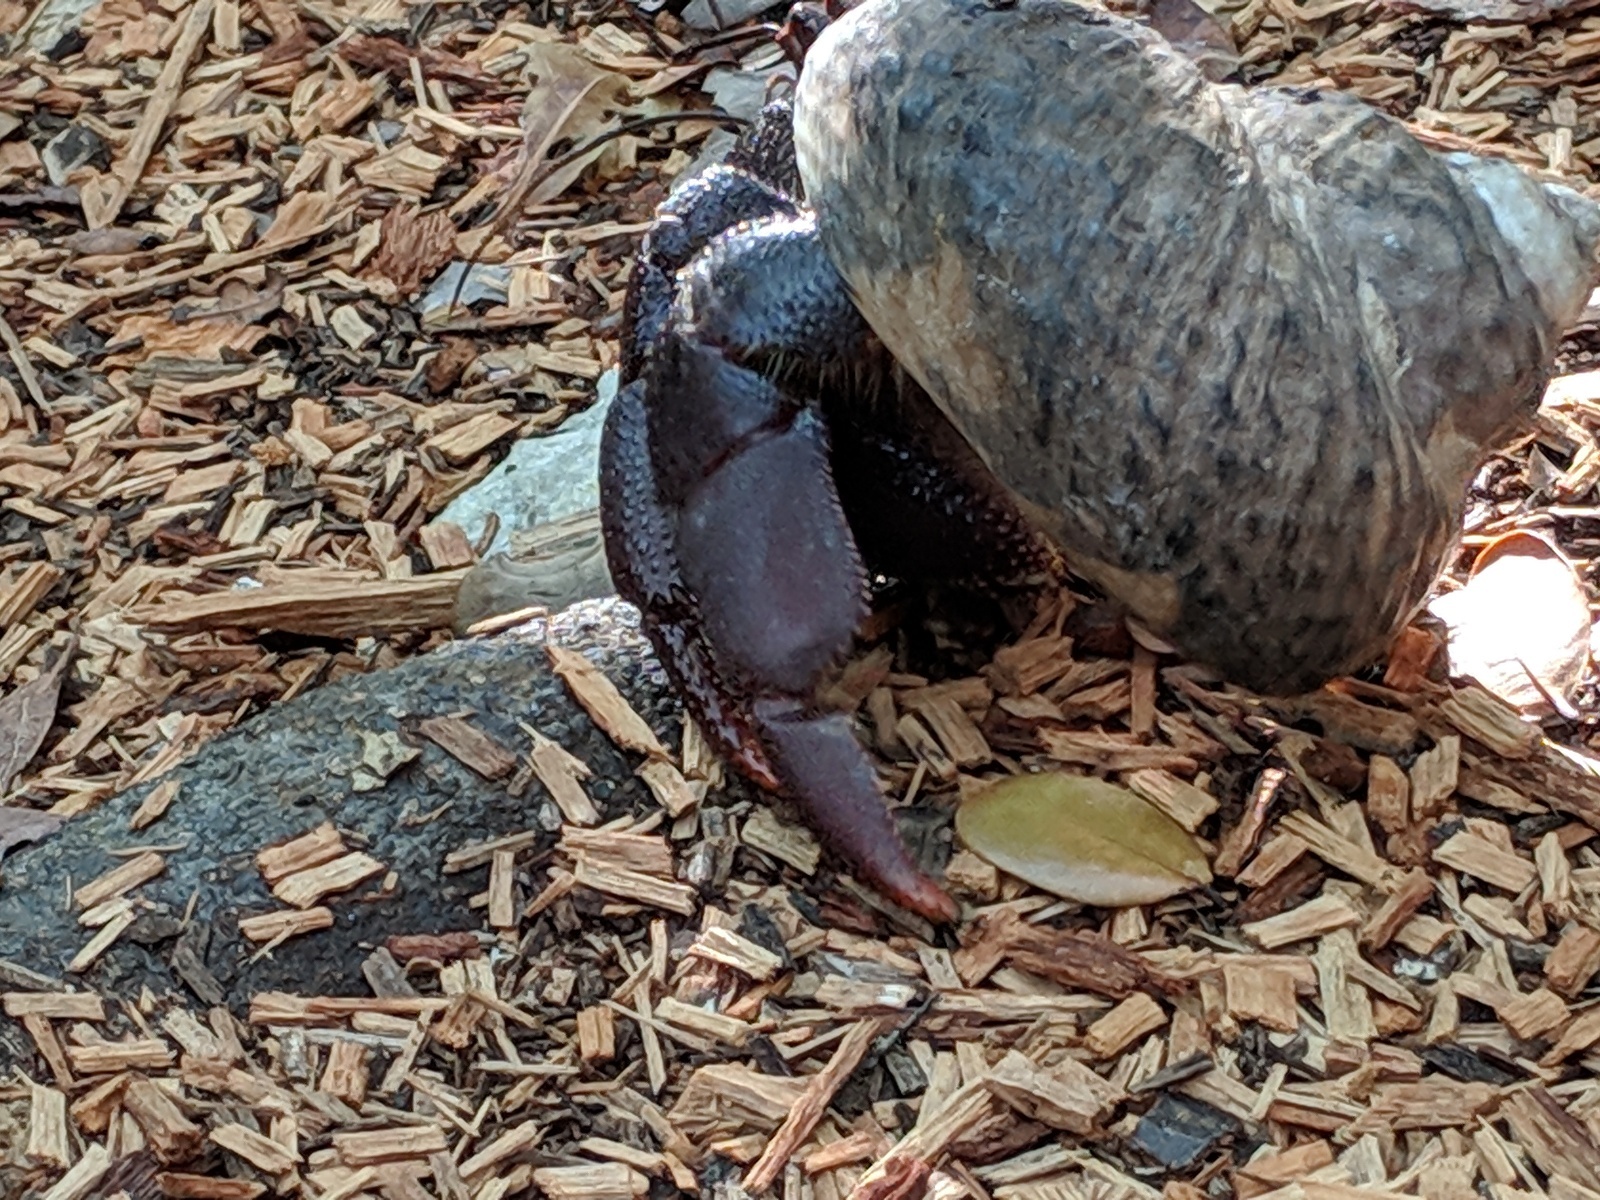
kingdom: Animalia
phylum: Arthropoda
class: Malacostraca
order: Decapoda
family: Coenobitidae
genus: Coenobita
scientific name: Coenobita clypeatus
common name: Caribbean hermit crab
